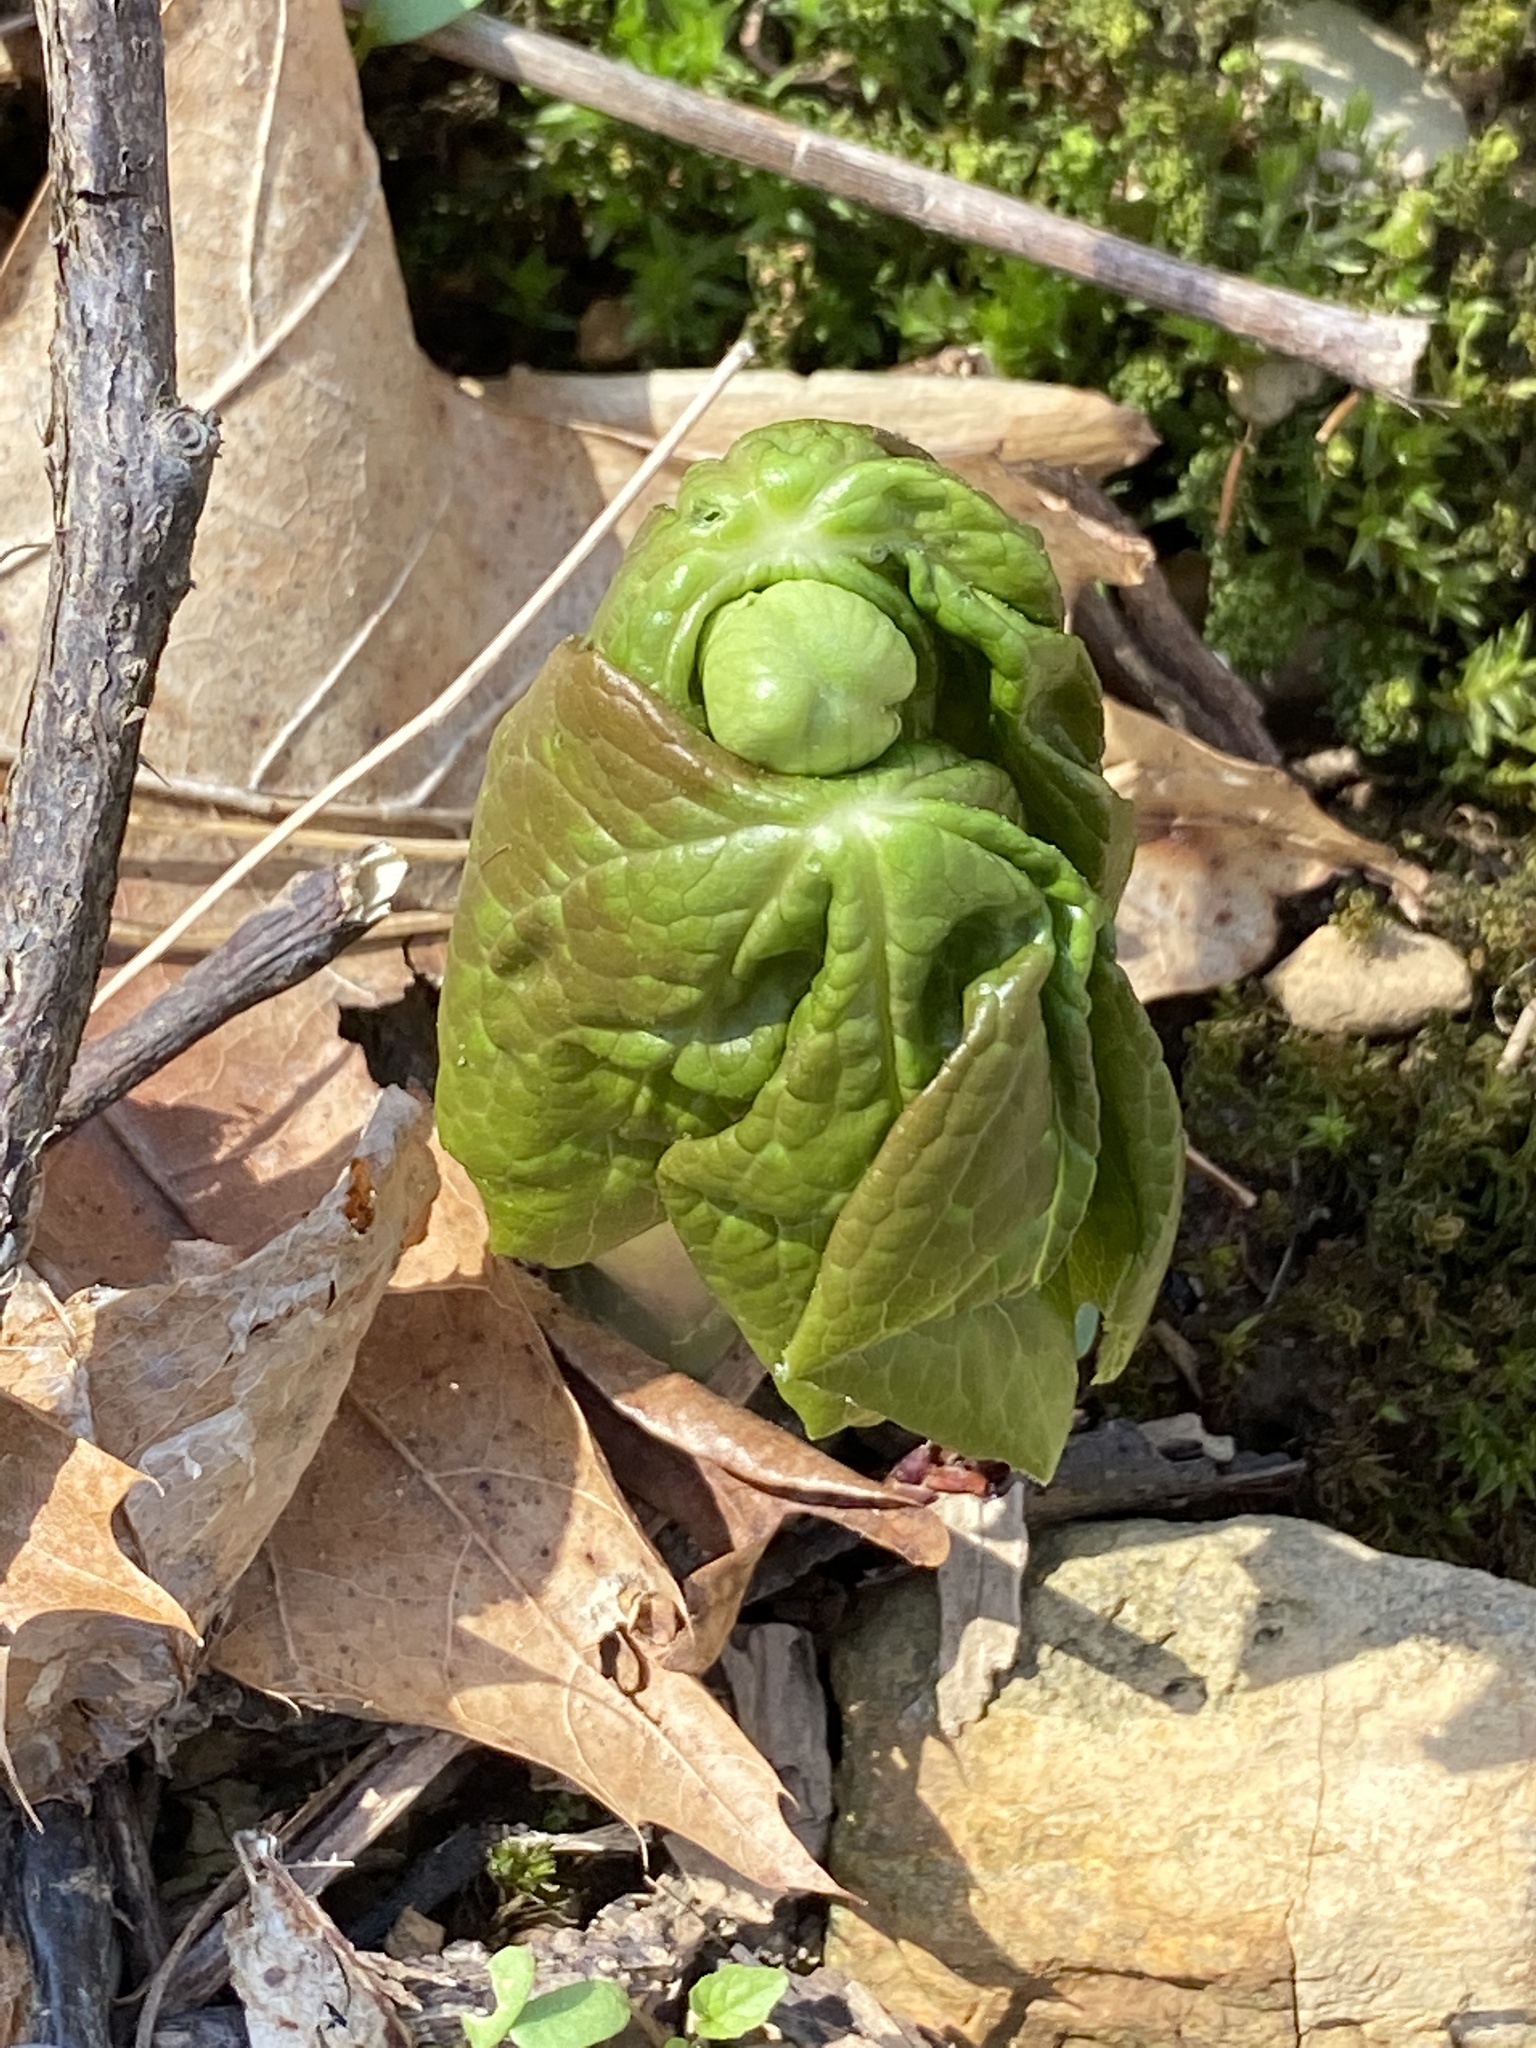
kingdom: Plantae
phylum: Tracheophyta
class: Magnoliopsida
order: Ranunculales
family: Berberidaceae
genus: Podophyllum
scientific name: Podophyllum peltatum
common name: Wild mandrake
